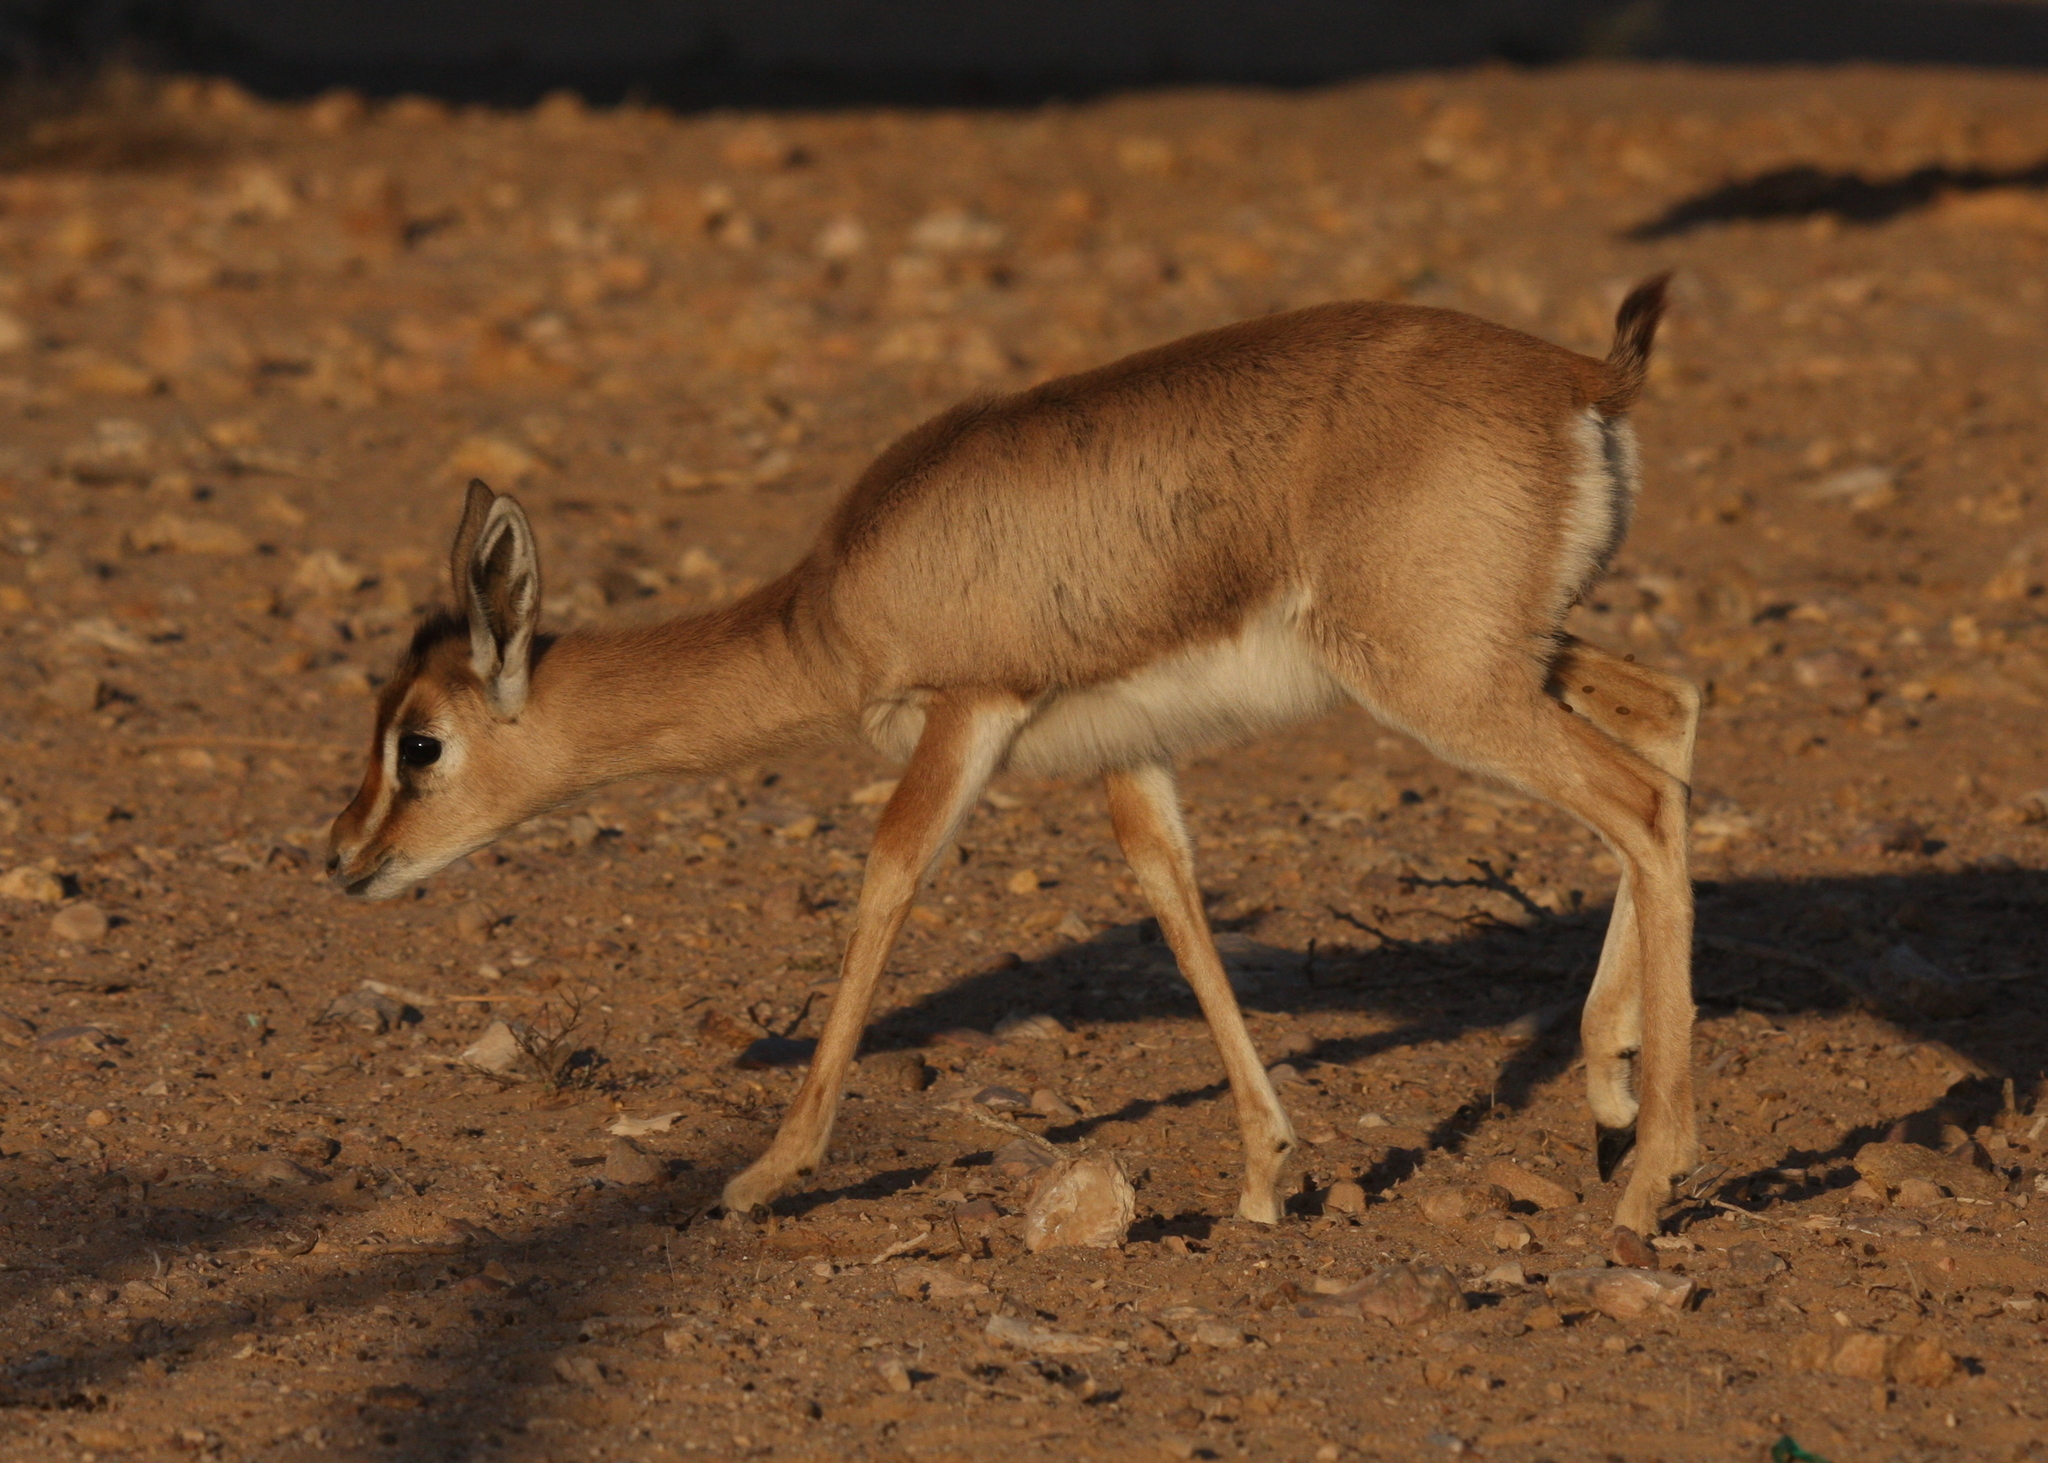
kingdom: Animalia
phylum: Chordata
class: Mammalia
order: Artiodactyla
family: Bovidae
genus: Gazella
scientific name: Gazella arabica
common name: Arabian gazelle
